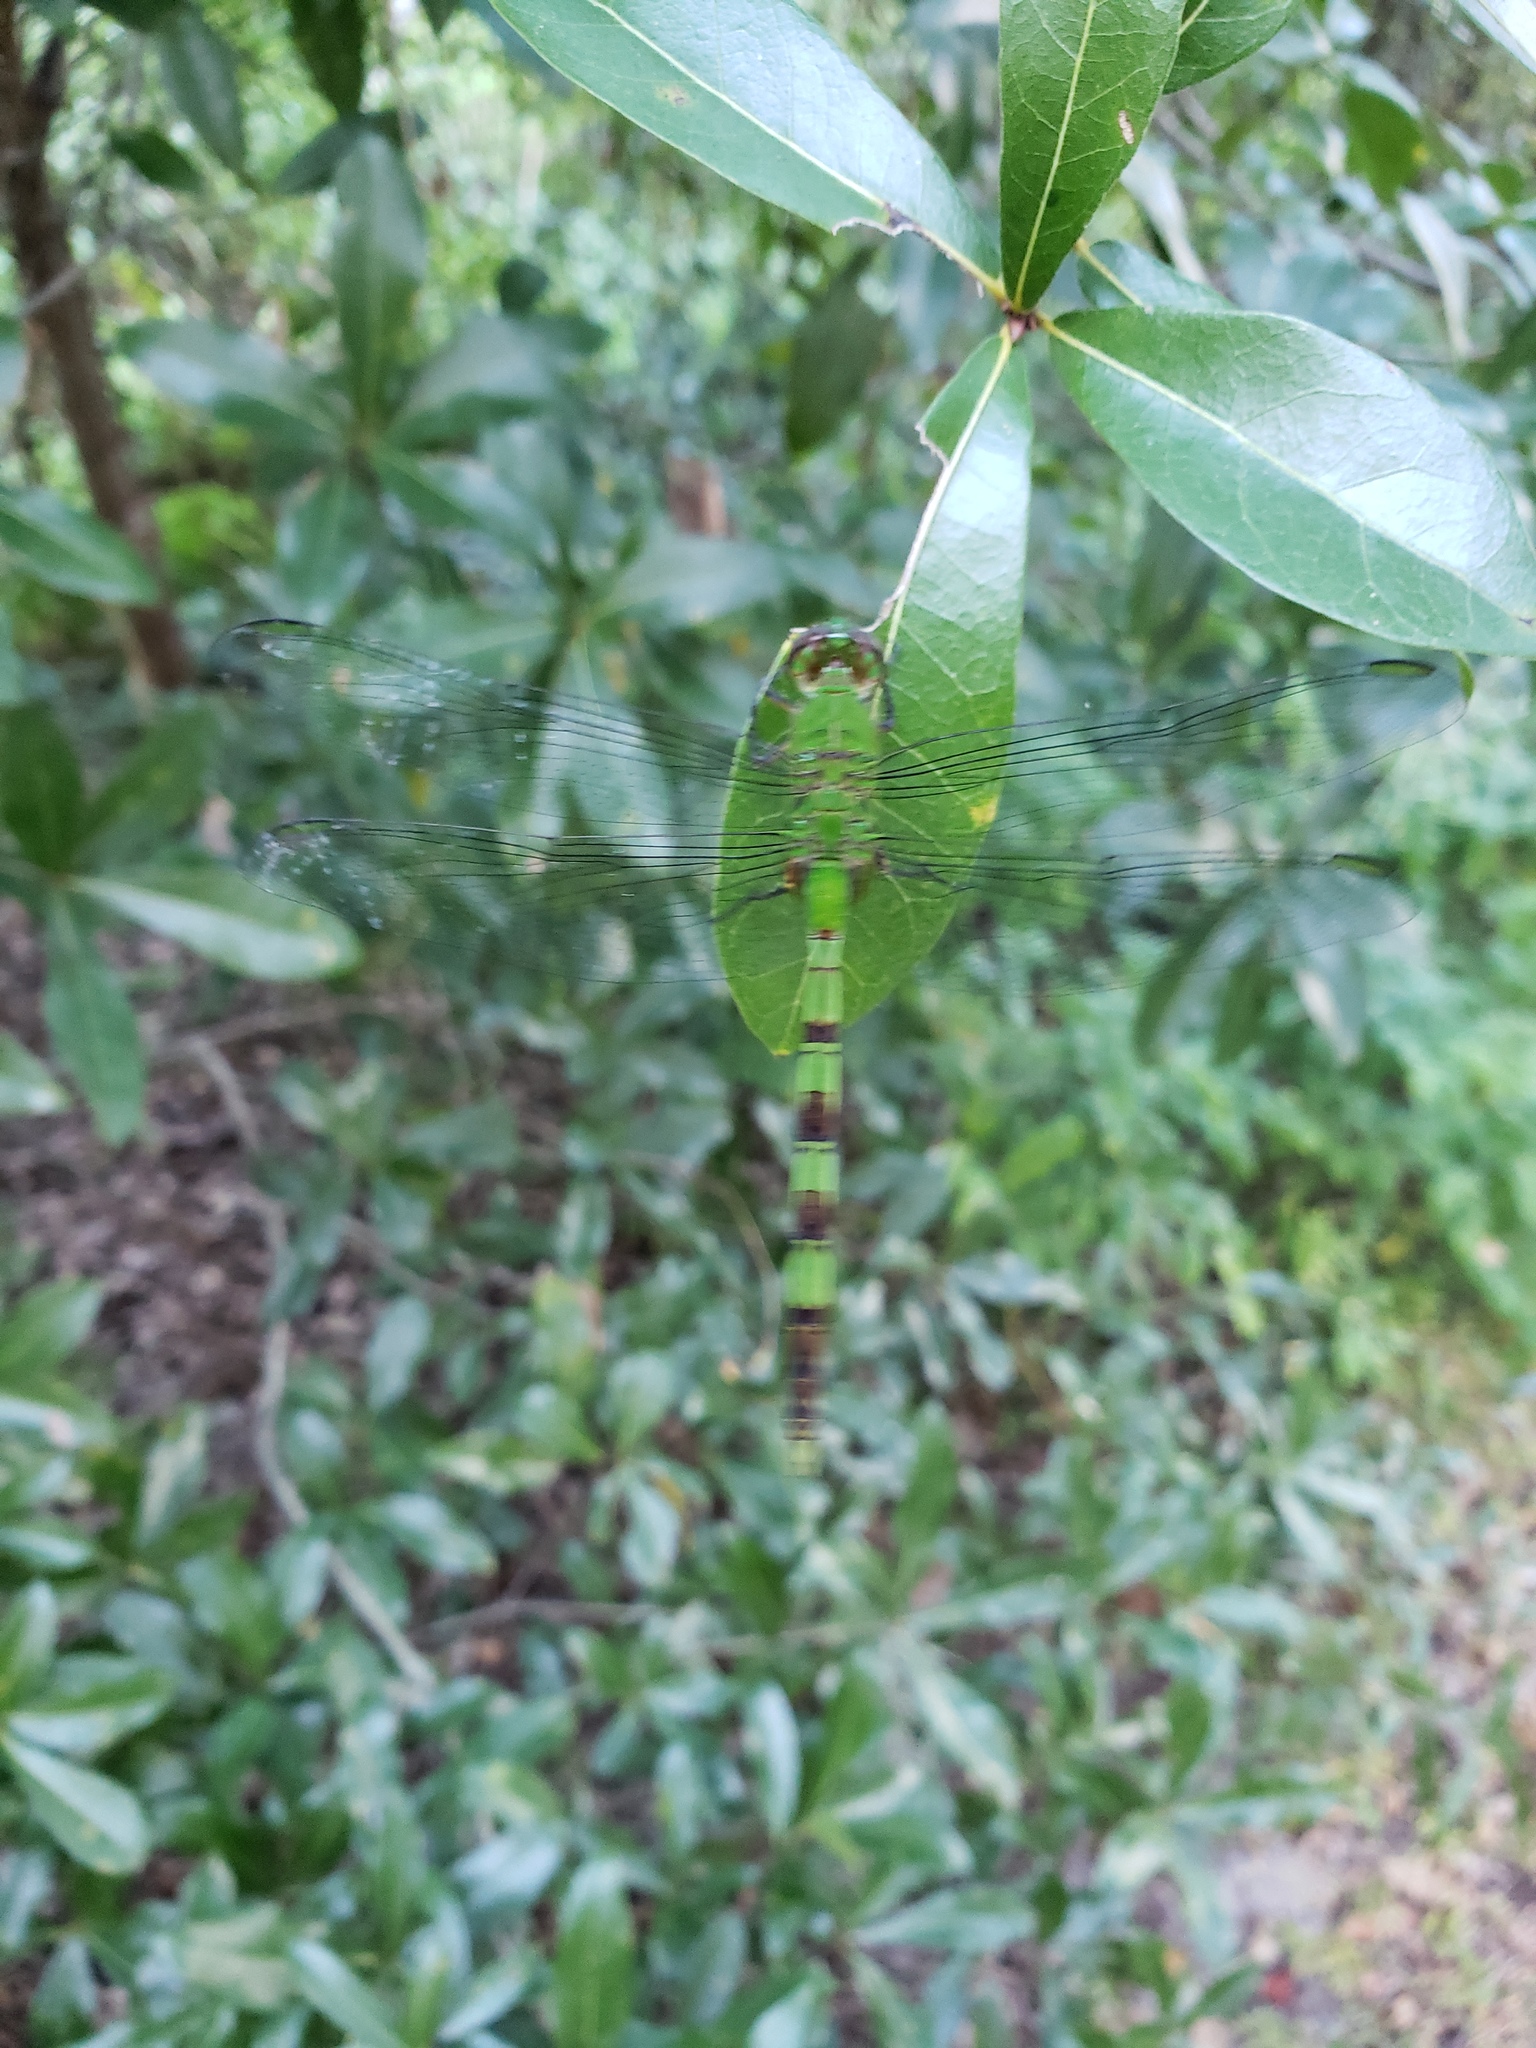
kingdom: Animalia
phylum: Arthropoda
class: Insecta
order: Odonata
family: Libellulidae
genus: Erythemis
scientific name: Erythemis vesiculosa
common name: Great pondhawk
